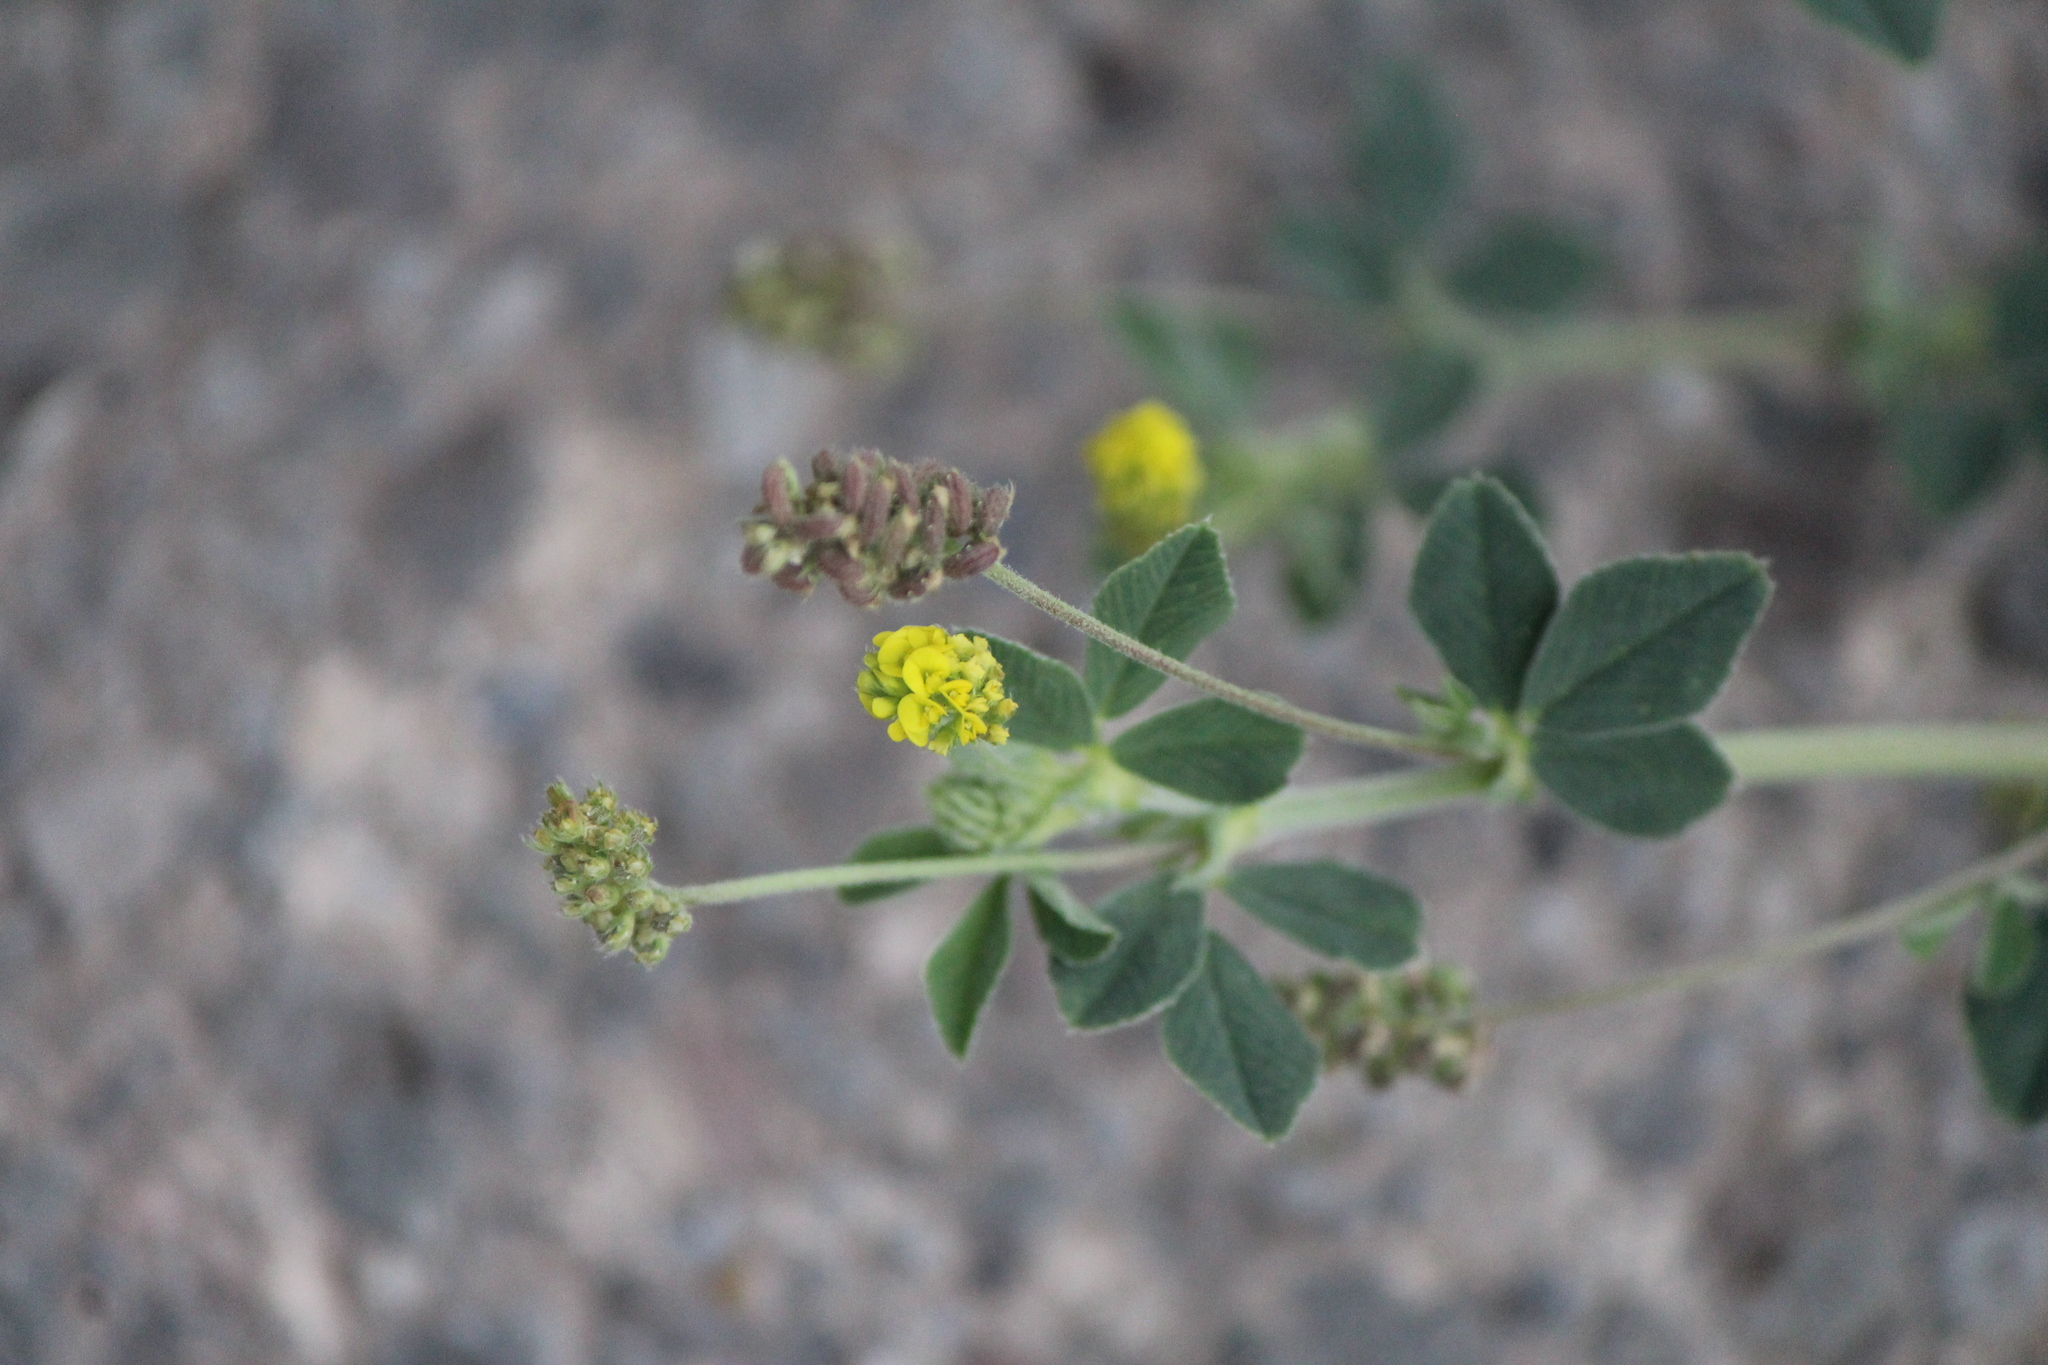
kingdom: Plantae
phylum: Tracheophyta
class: Magnoliopsida
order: Fabales
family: Fabaceae
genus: Medicago
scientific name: Medicago polymorpha
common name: Burclover
